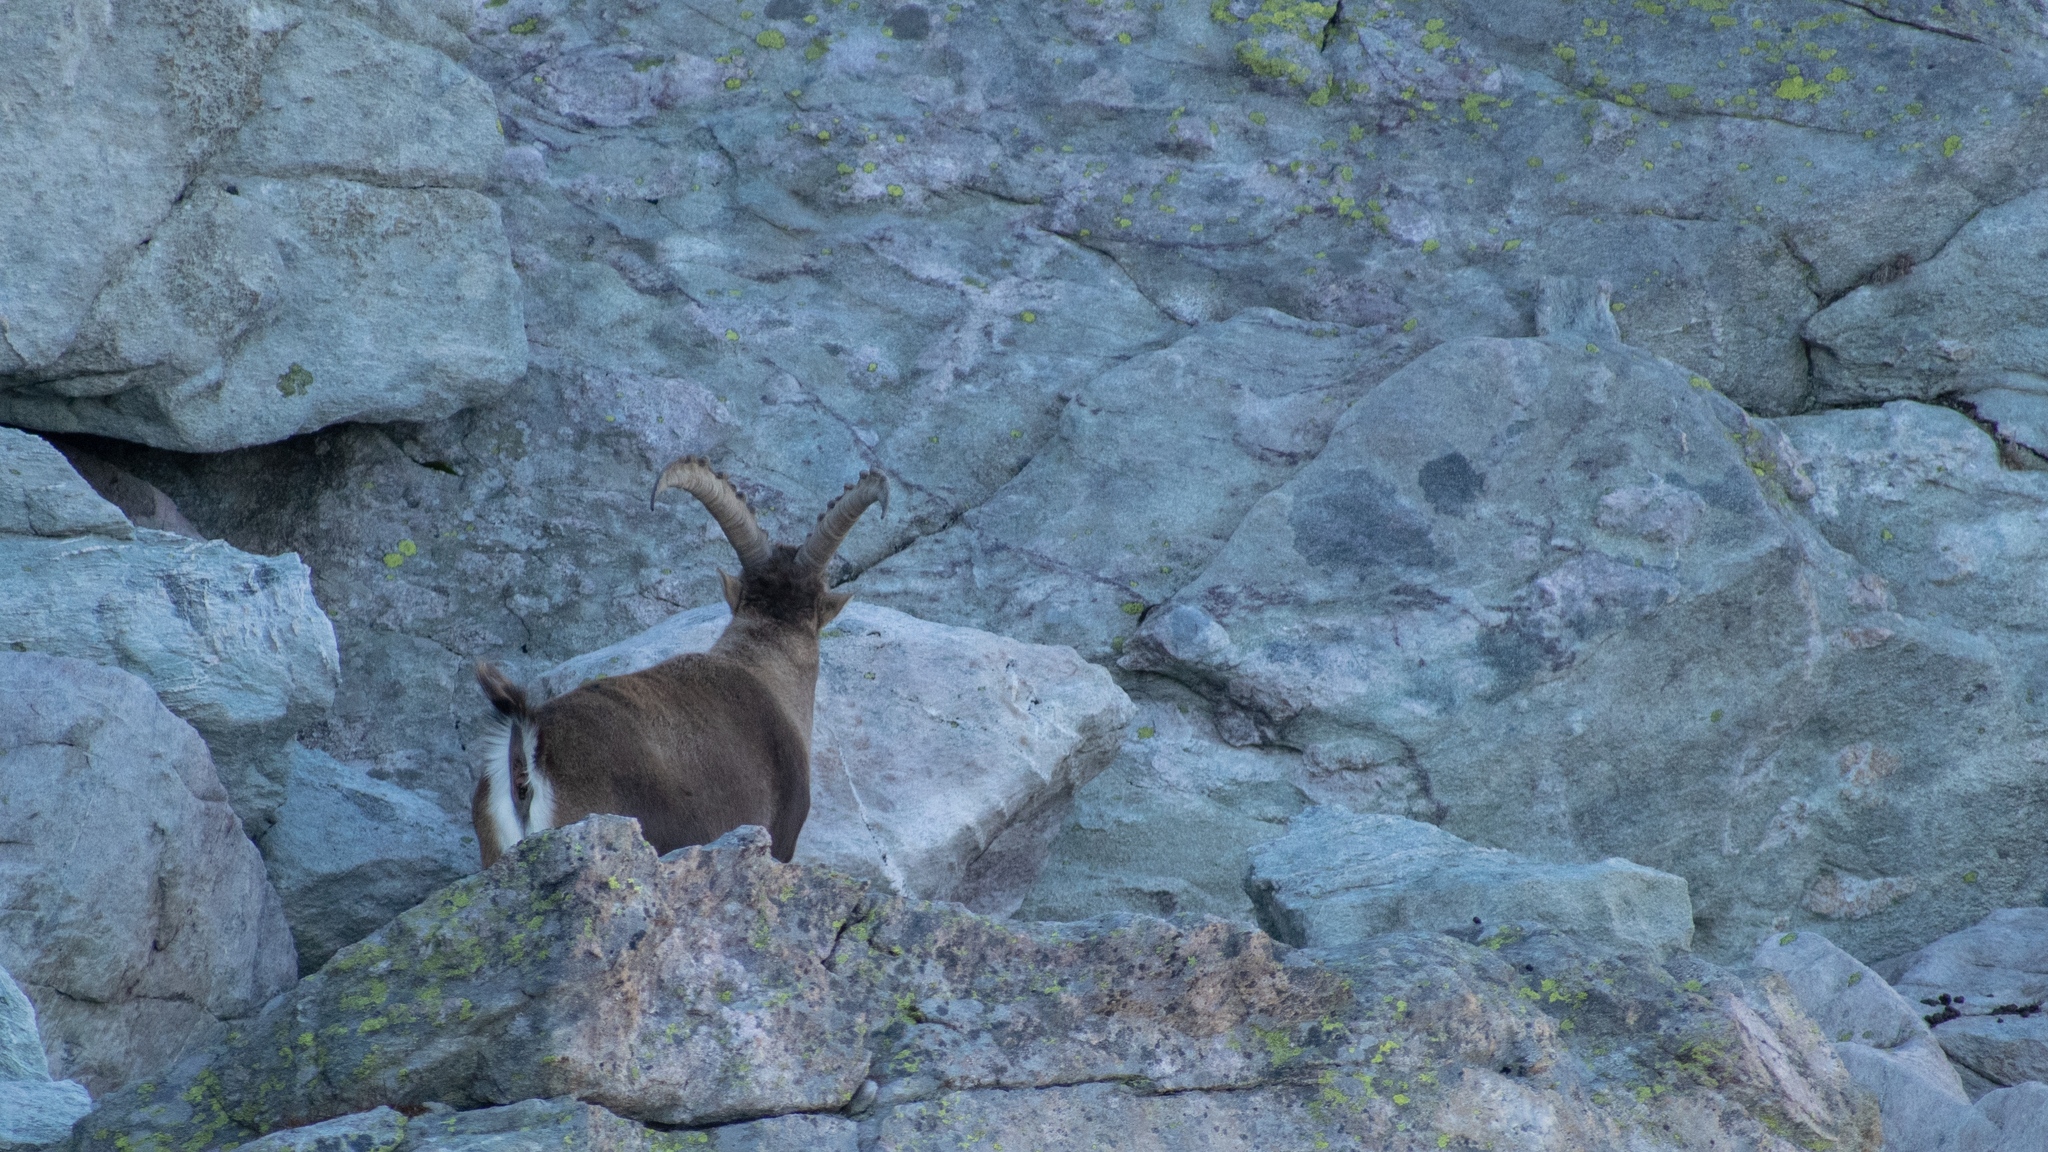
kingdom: Animalia
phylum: Chordata
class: Mammalia
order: Artiodactyla
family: Bovidae
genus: Capra
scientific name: Capra ibex
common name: Alpine ibex
